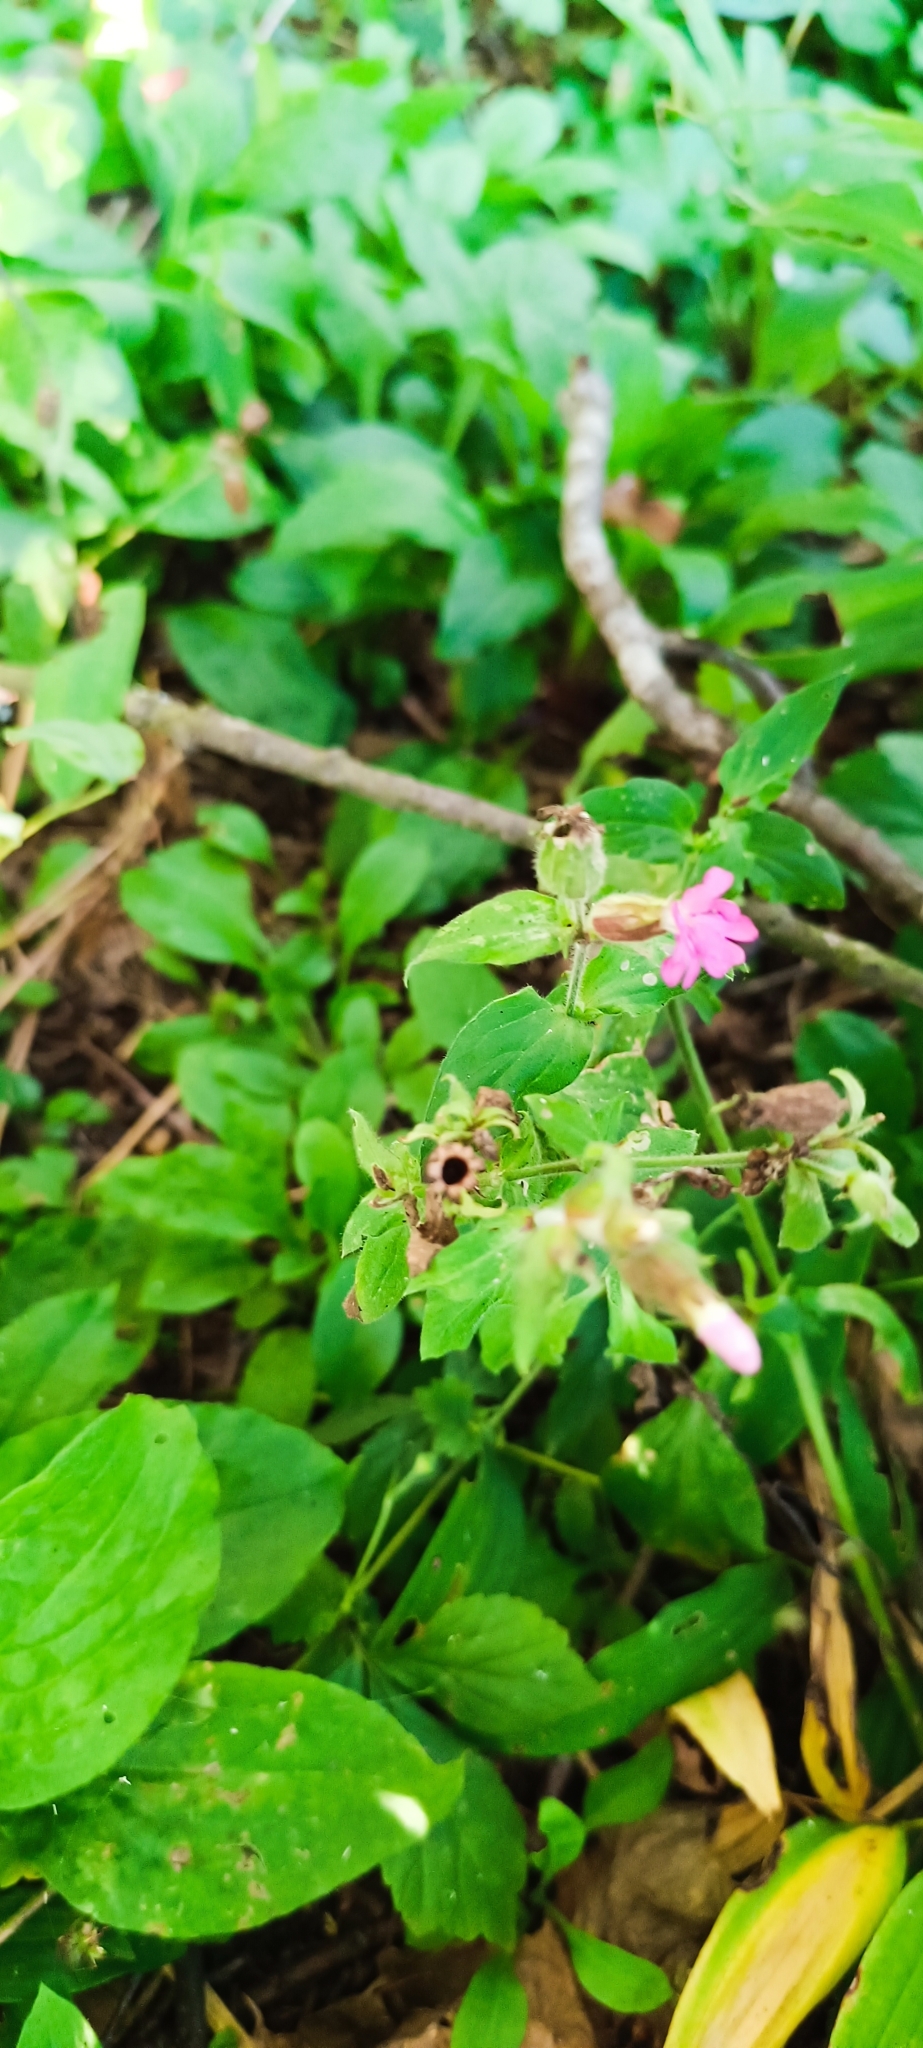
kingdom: Plantae
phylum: Tracheophyta
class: Magnoliopsida
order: Caryophyllales
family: Caryophyllaceae
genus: Silene
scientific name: Silene dioica
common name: Red campion
